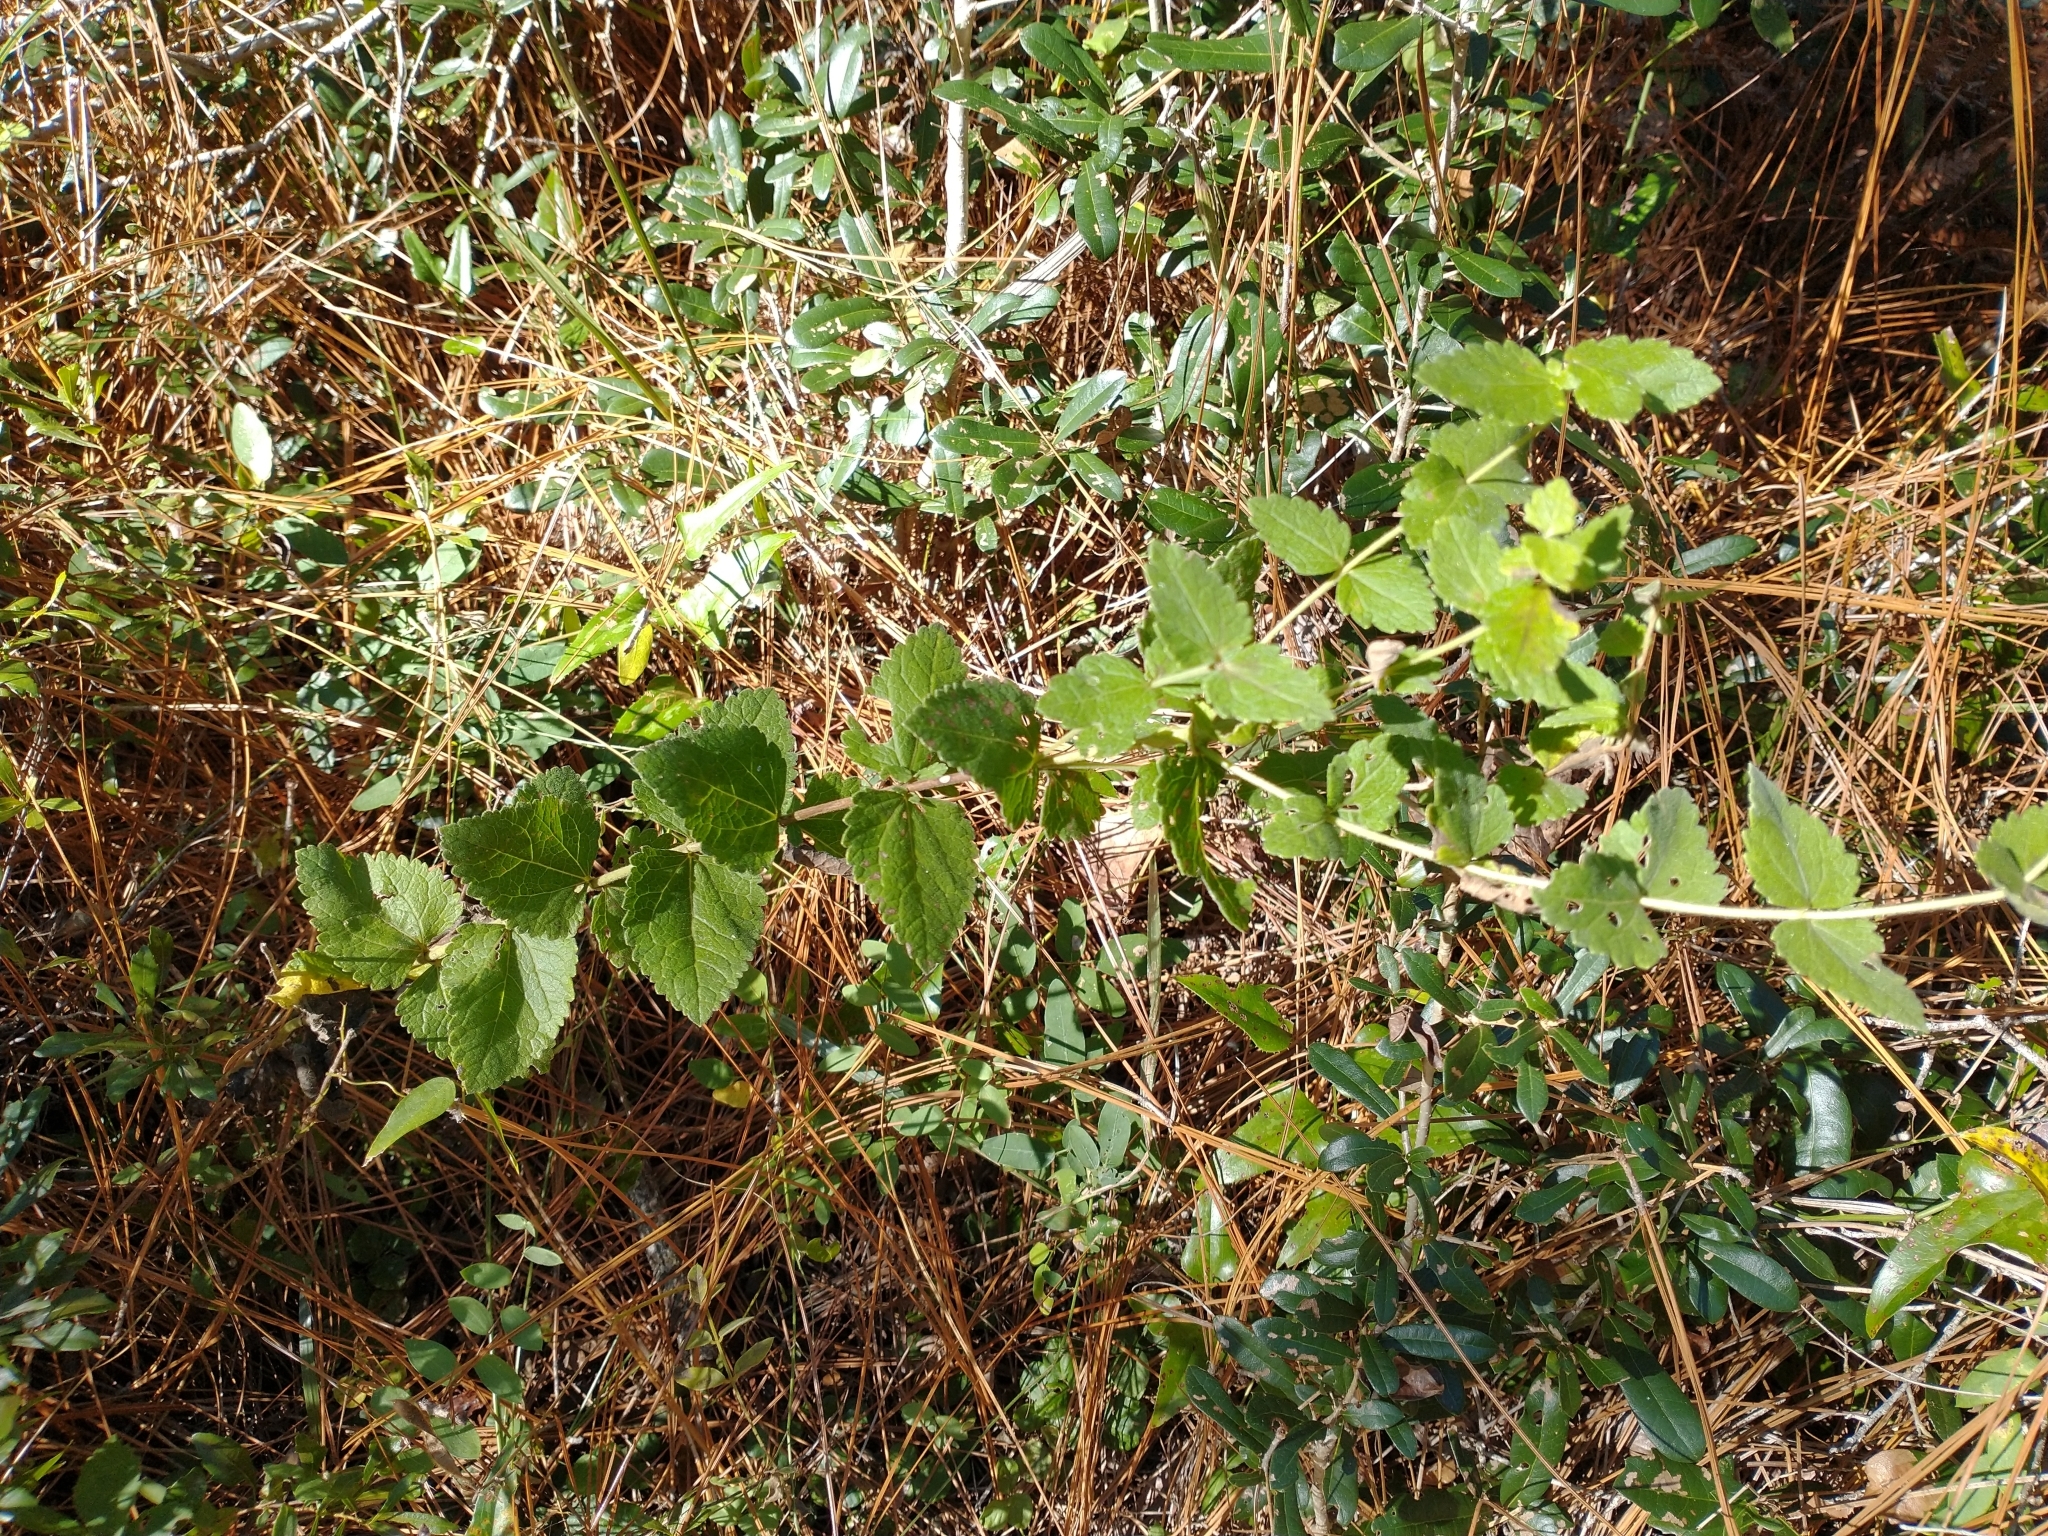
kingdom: Plantae
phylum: Tracheophyta
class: Magnoliopsida
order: Asterales
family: Asteraceae
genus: Eupatorium
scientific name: Eupatorium rotundifolium
